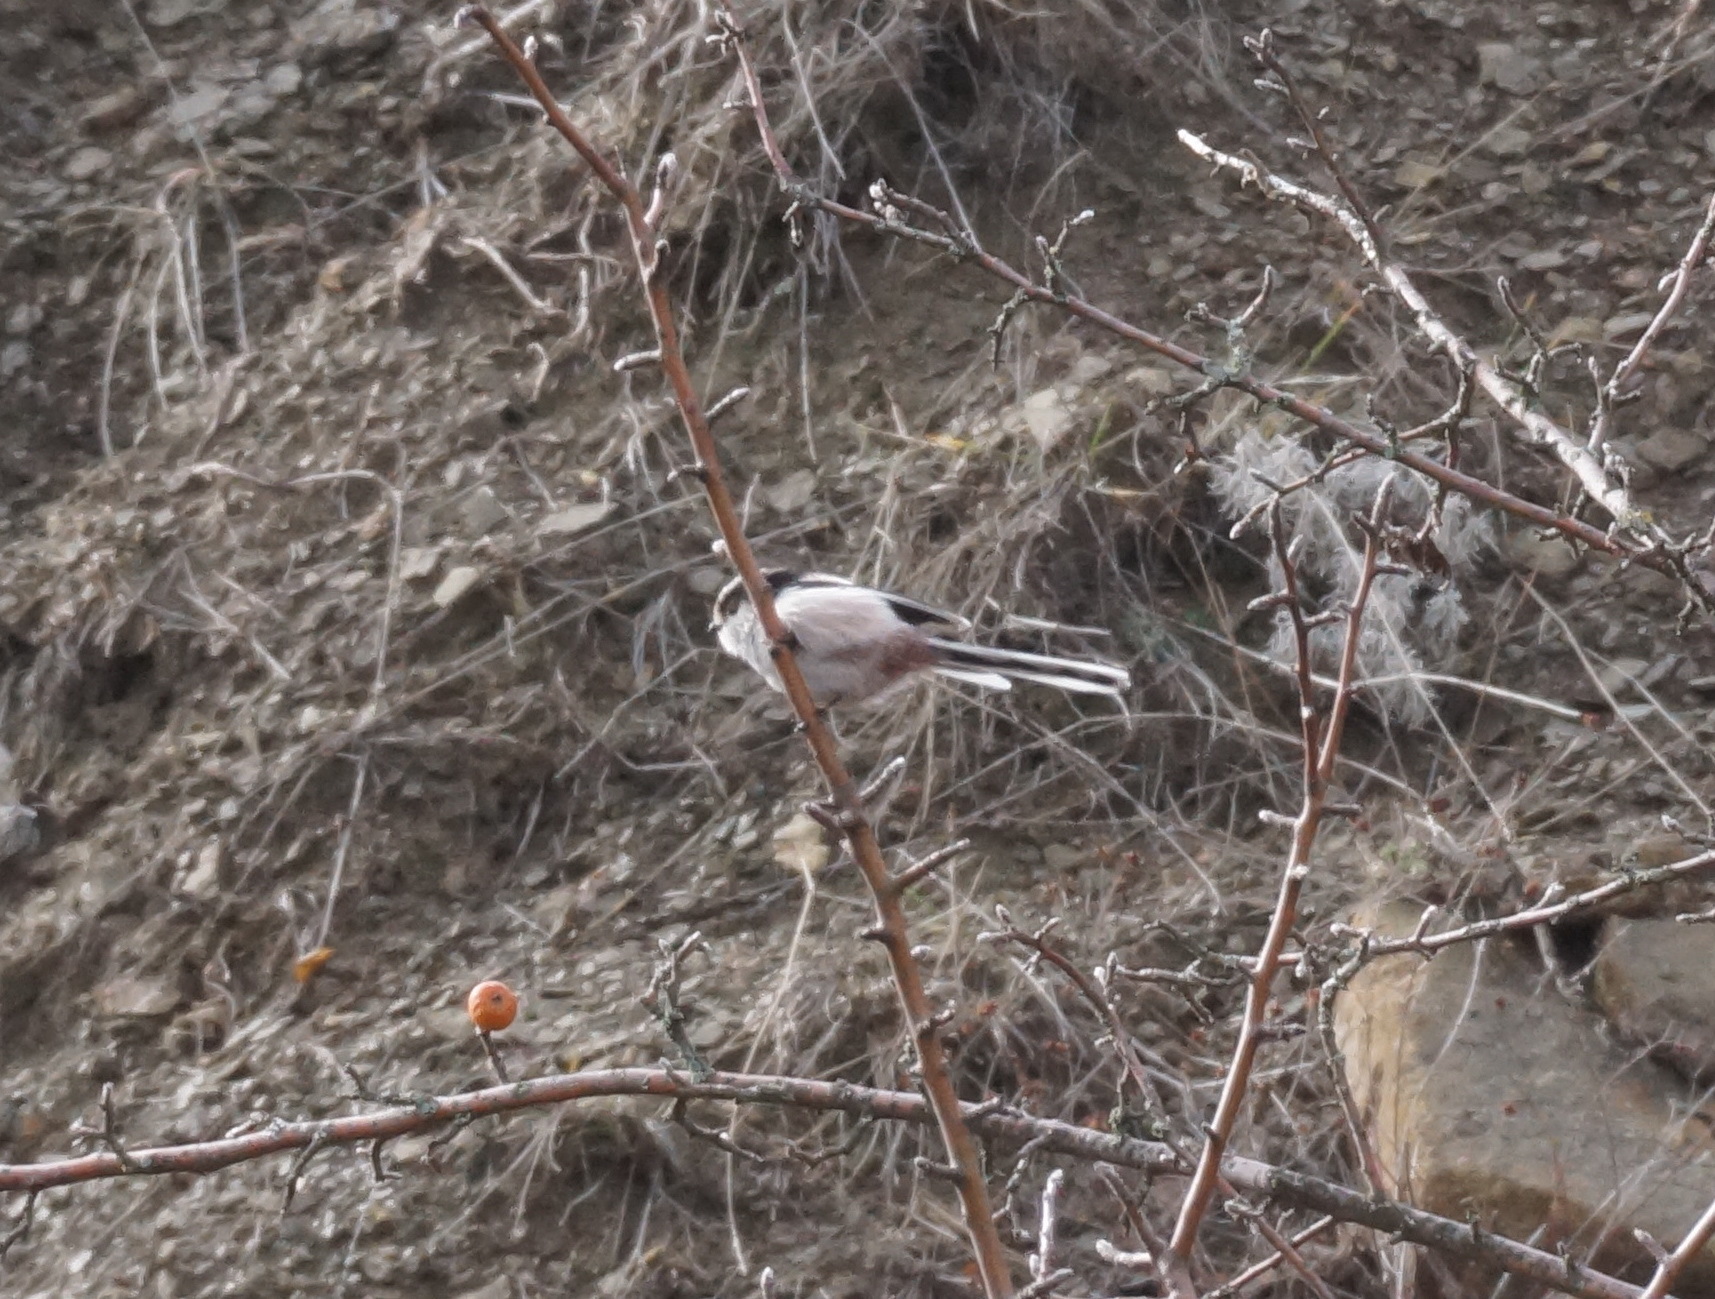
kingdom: Animalia
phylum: Chordata
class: Aves
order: Passeriformes
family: Aegithalidae
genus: Aegithalos
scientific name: Aegithalos caudatus
